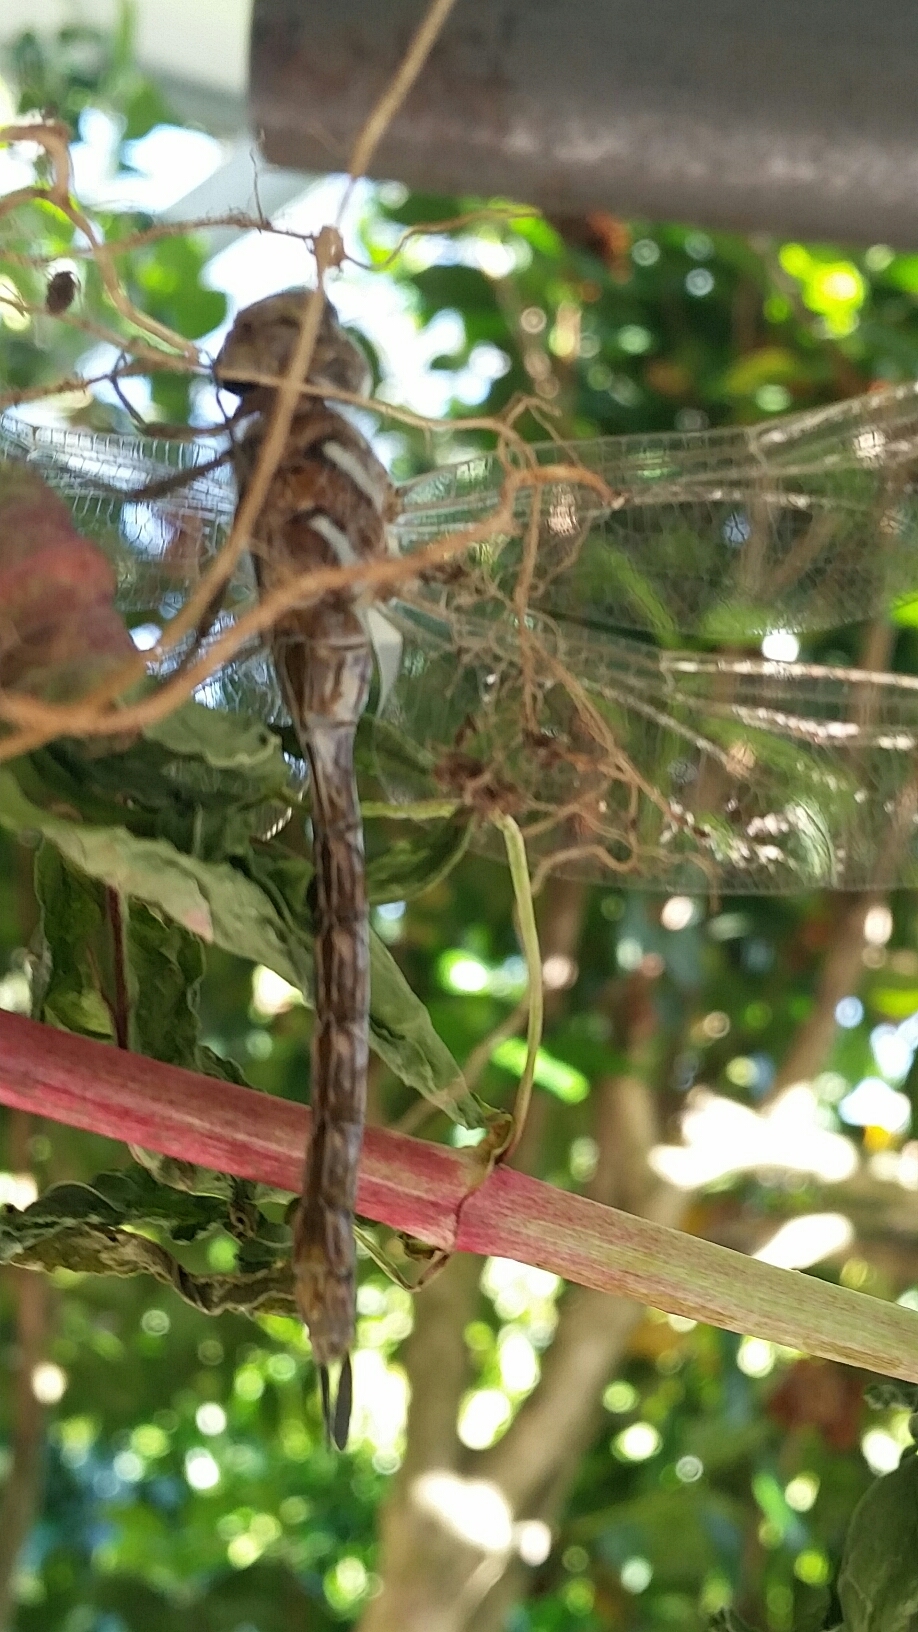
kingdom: Animalia
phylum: Arthropoda
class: Insecta
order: Odonata
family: Aeshnidae
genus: Rhionaeschna
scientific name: Rhionaeschna multicolor
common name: Blue-eyed darner
